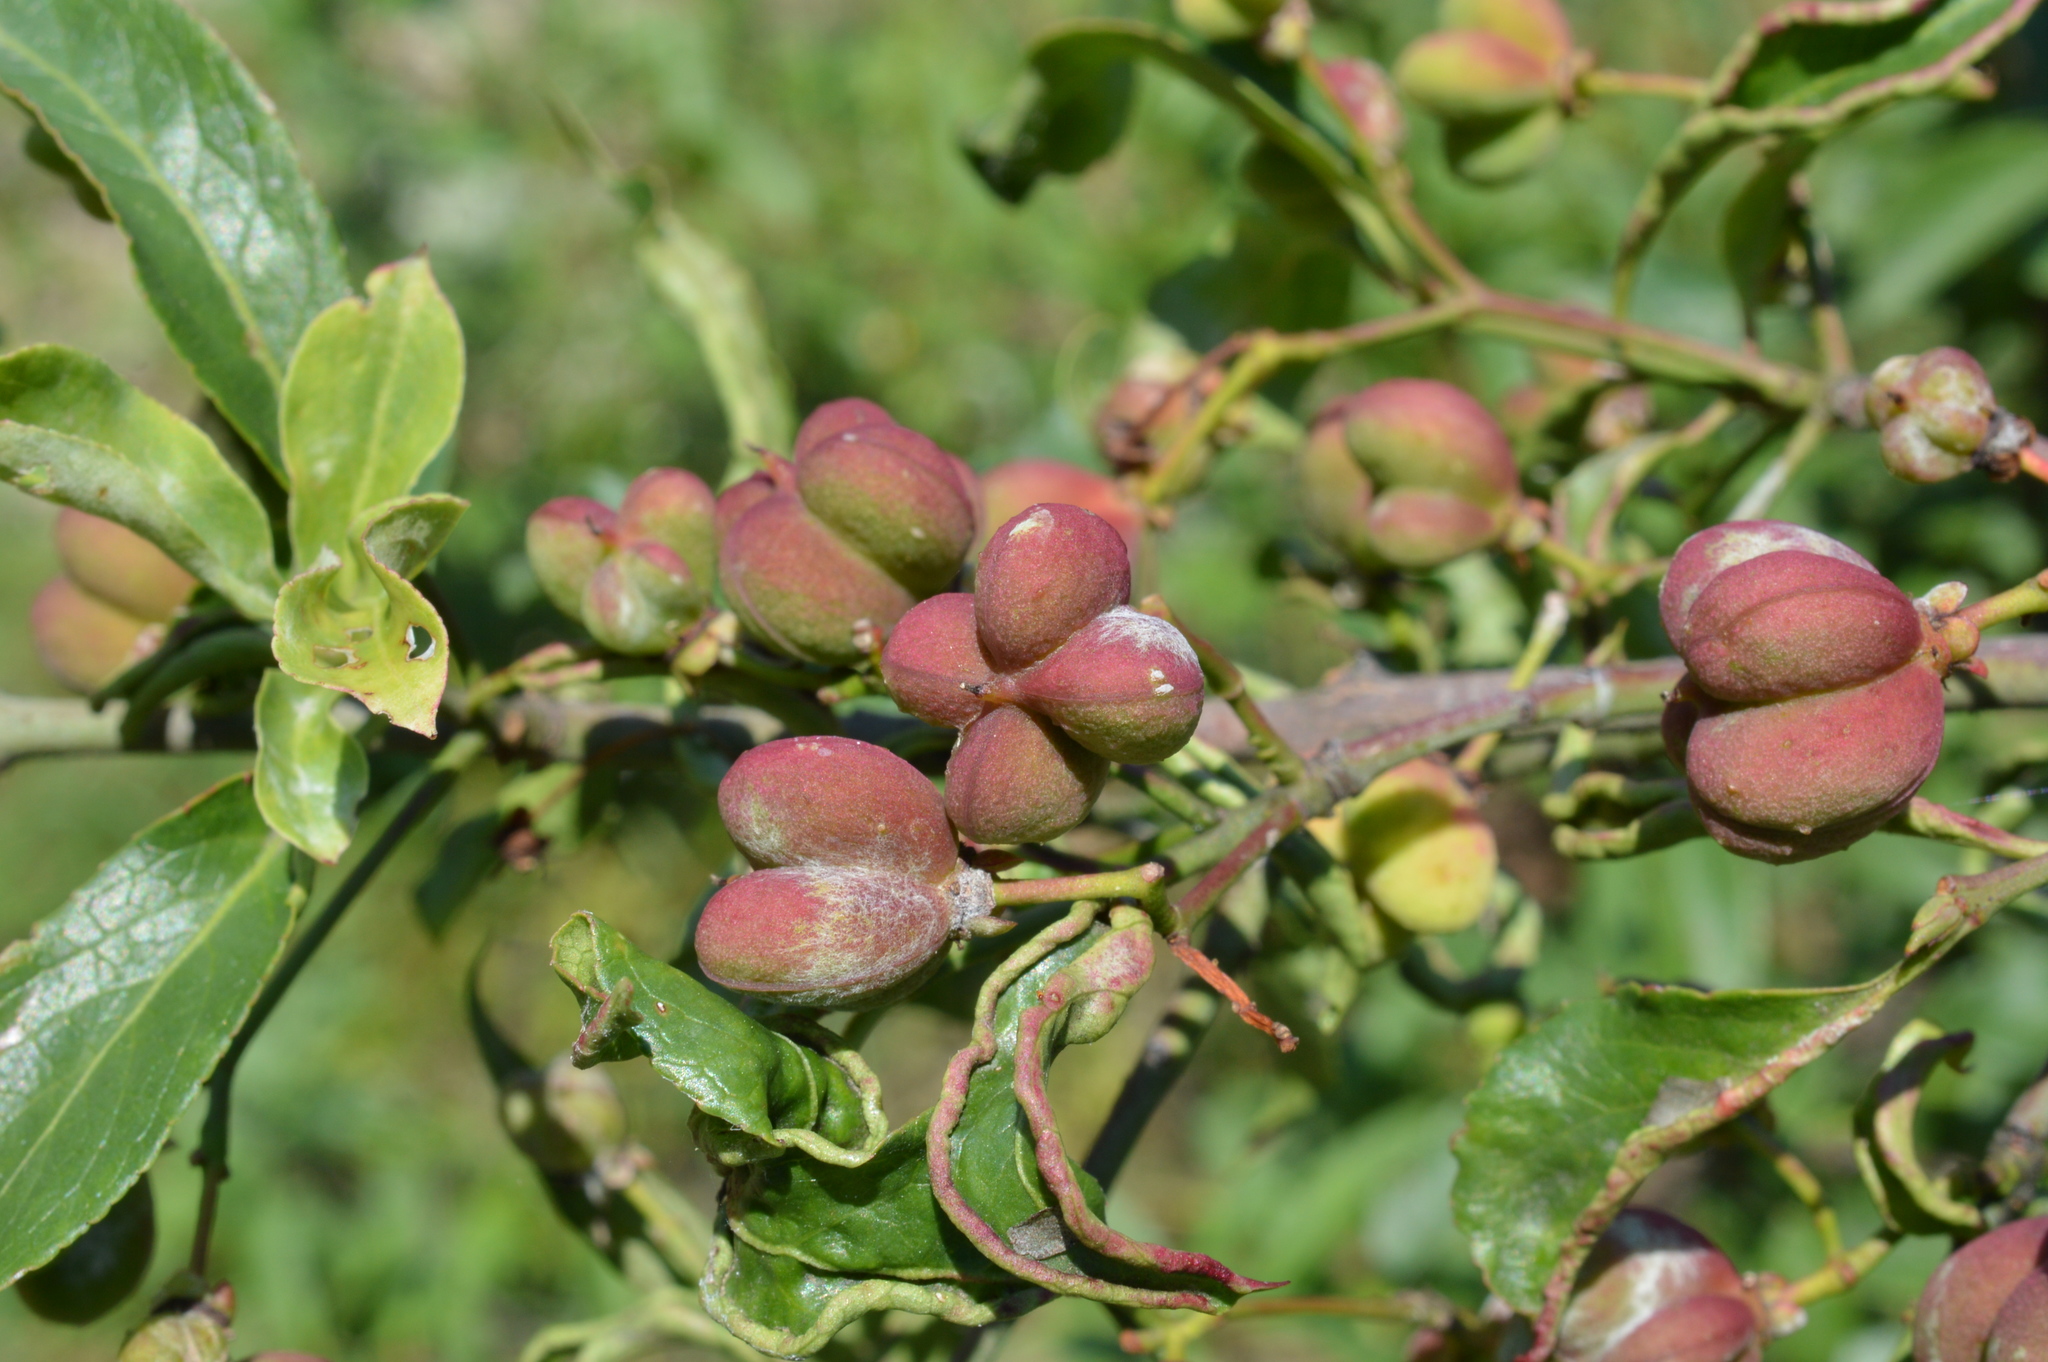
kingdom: Plantae
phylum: Tracheophyta
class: Magnoliopsida
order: Celastrales
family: Celastraceae
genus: Euonymus
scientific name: Euonymus europaeus
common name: Spindle
